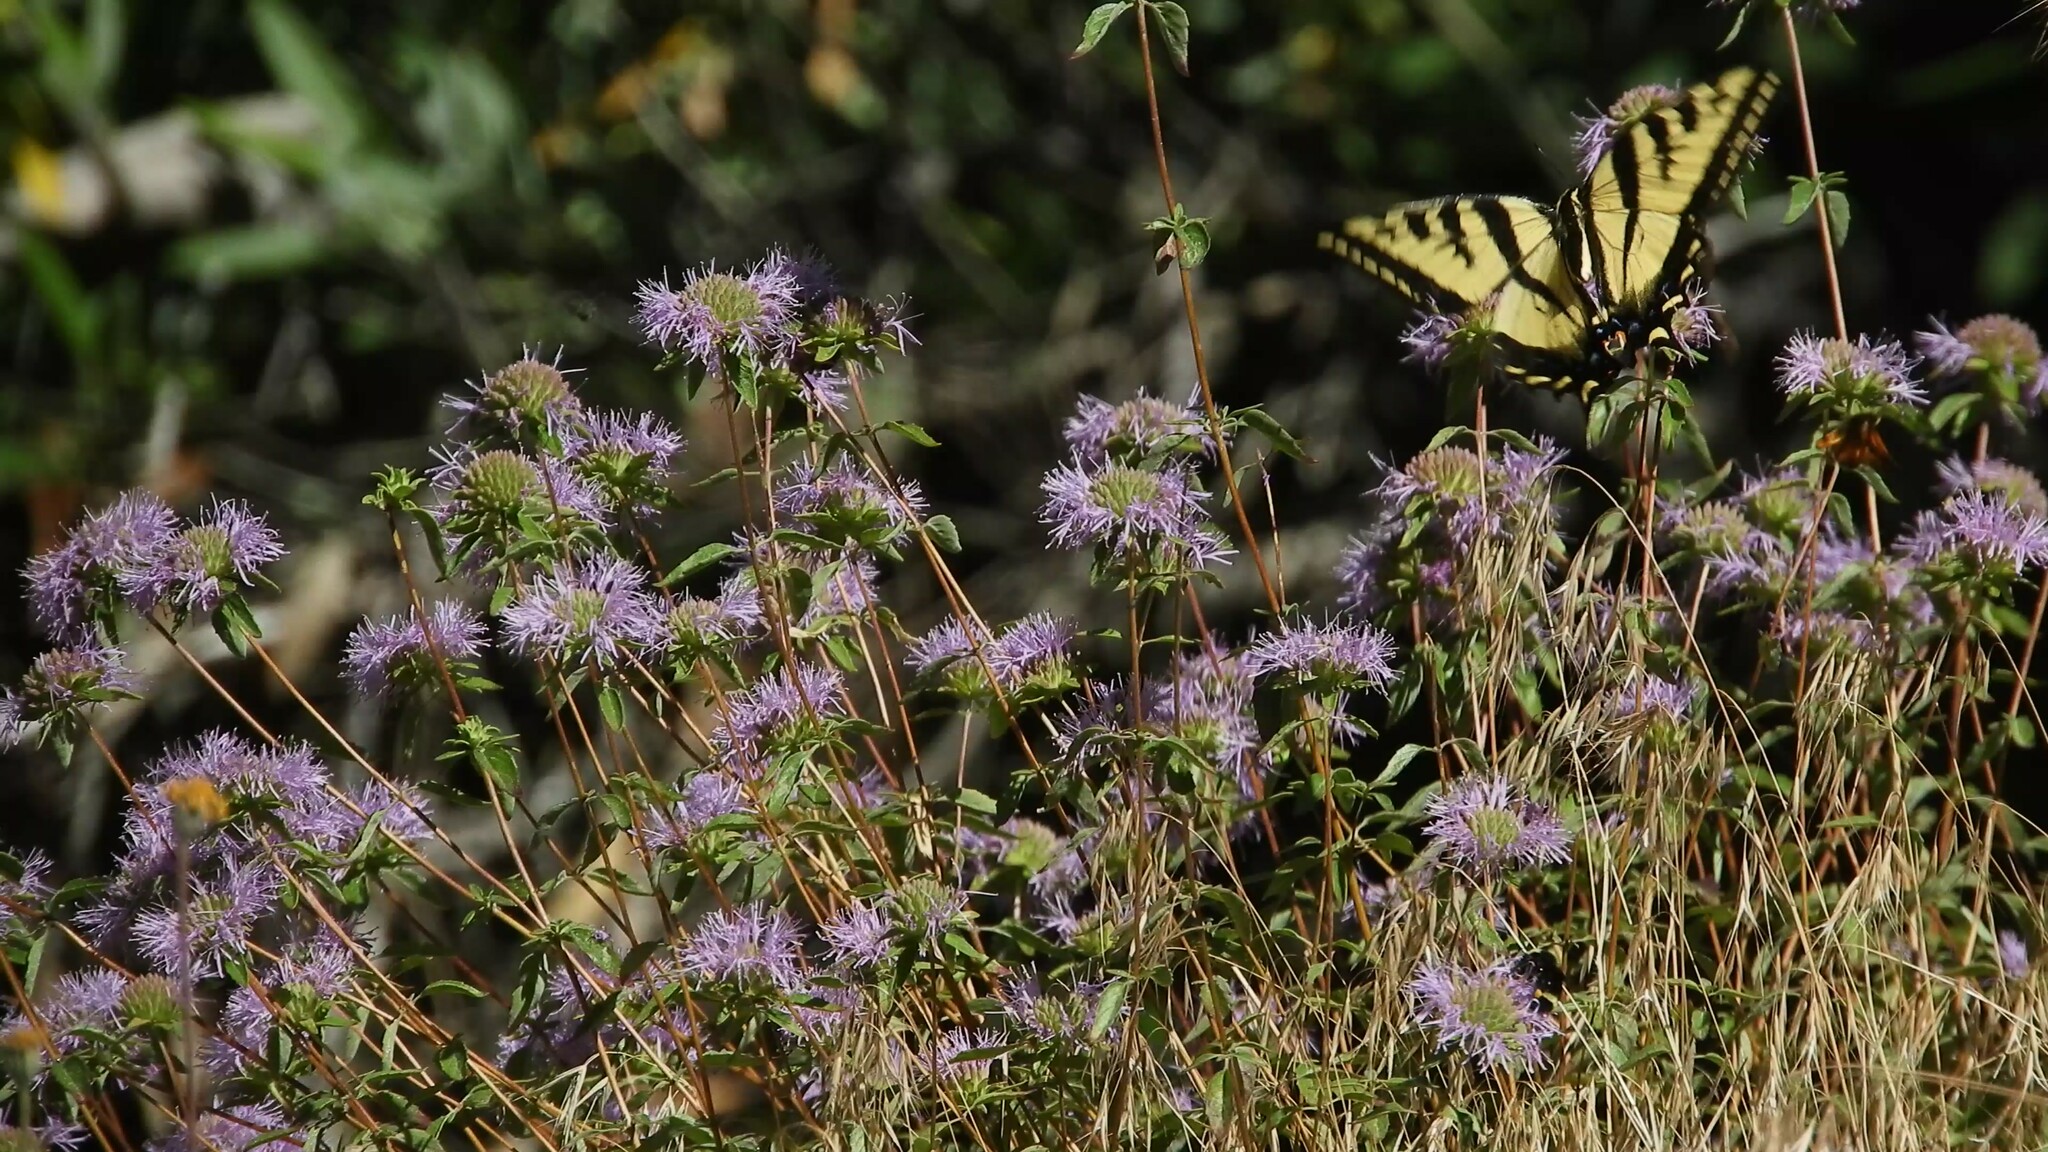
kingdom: Animalia
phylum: Arthropoda
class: Insecta
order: Lepidoptera
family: Papilionidae
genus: Papilio
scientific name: Papilio rutulus
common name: Western tiger swallowtail
